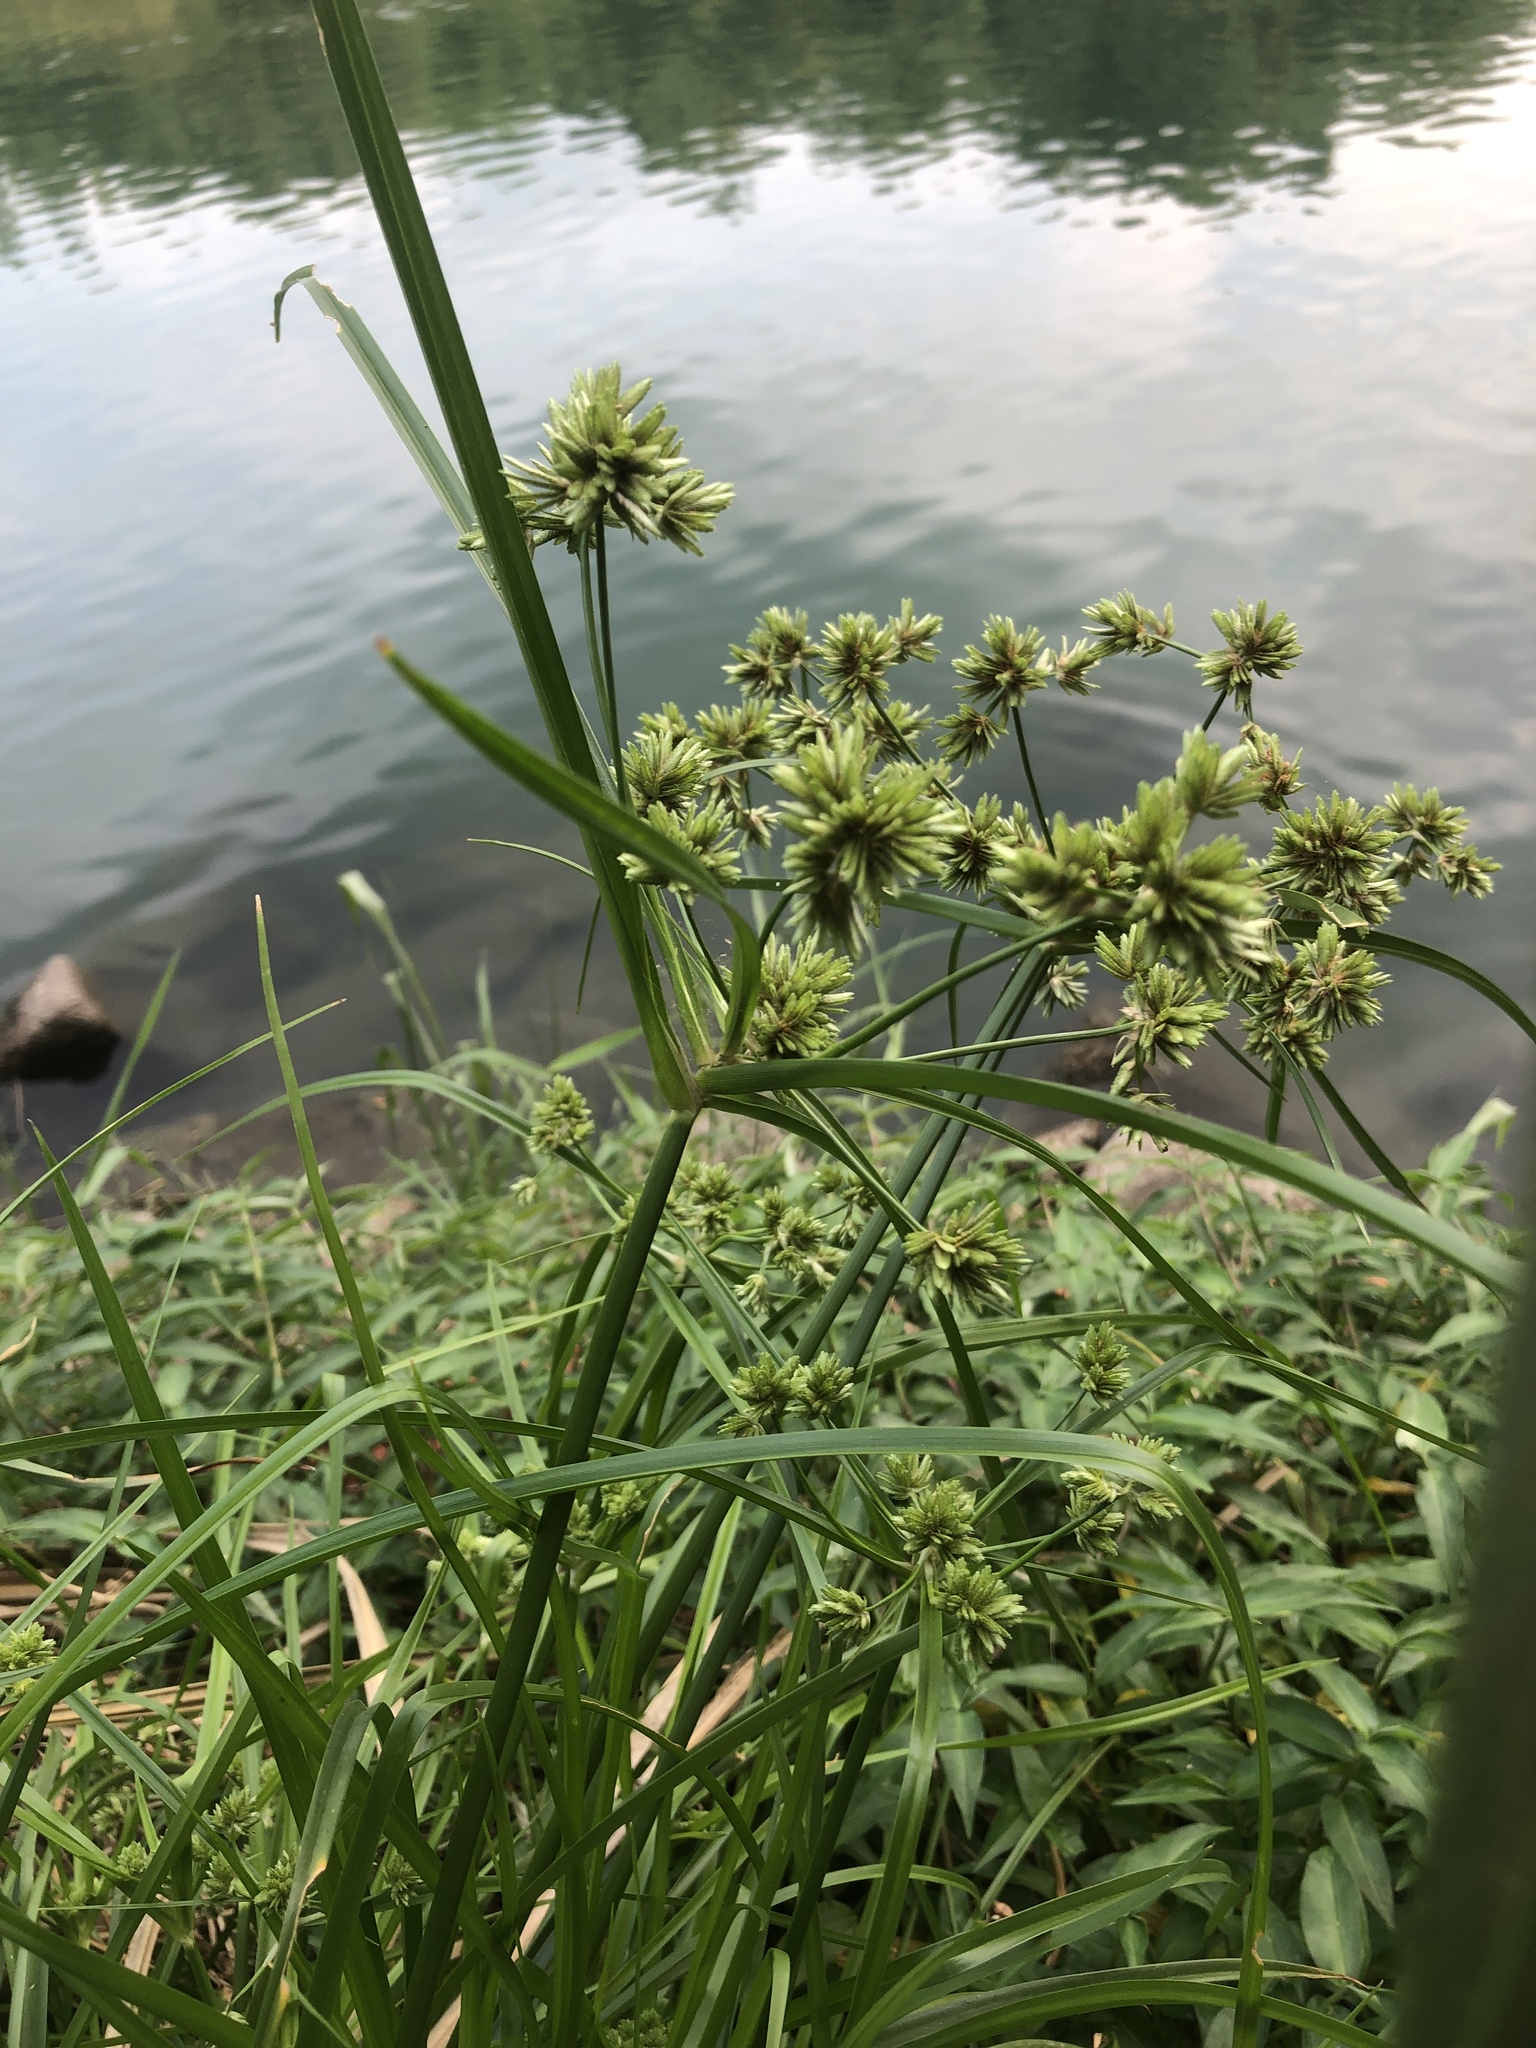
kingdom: Plantae
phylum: Tracheophyta
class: Liliopsida
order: Poales
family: Cyperaceae
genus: Cyperus
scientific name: Cyperus eragrostis
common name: Tall flatsedge
